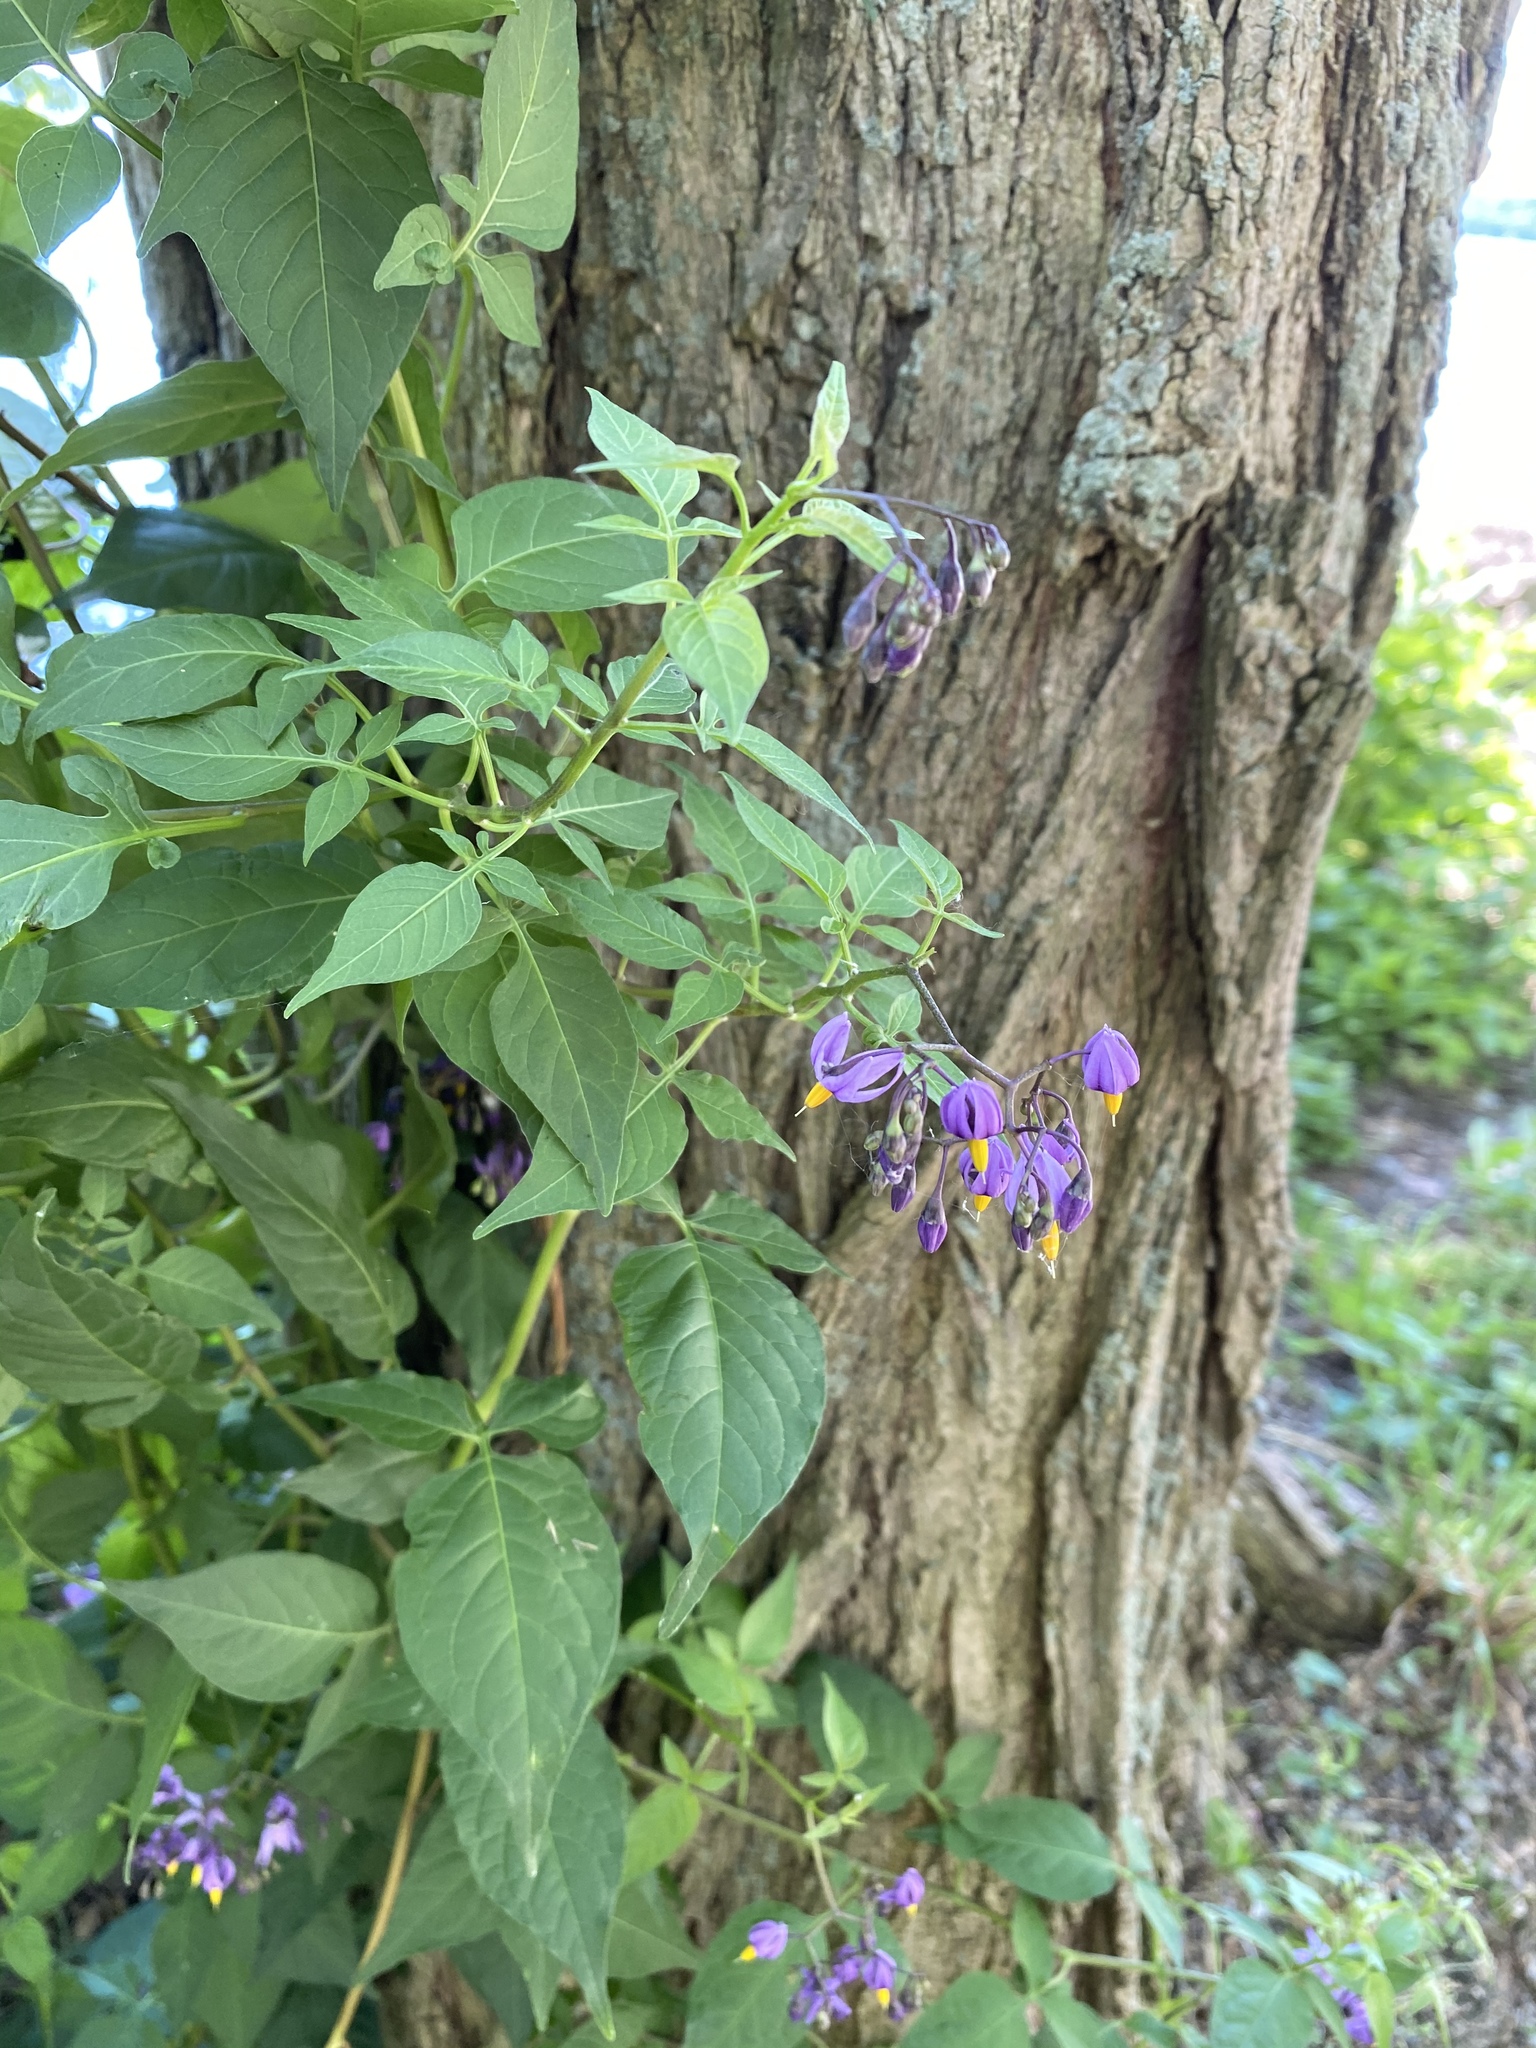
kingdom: Plantae
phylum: Tracheophyta
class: Magnoliopsida
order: Solanales
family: Solanaceae
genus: Solanum
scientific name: Solanum dulcamara
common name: Climbing nightshade
